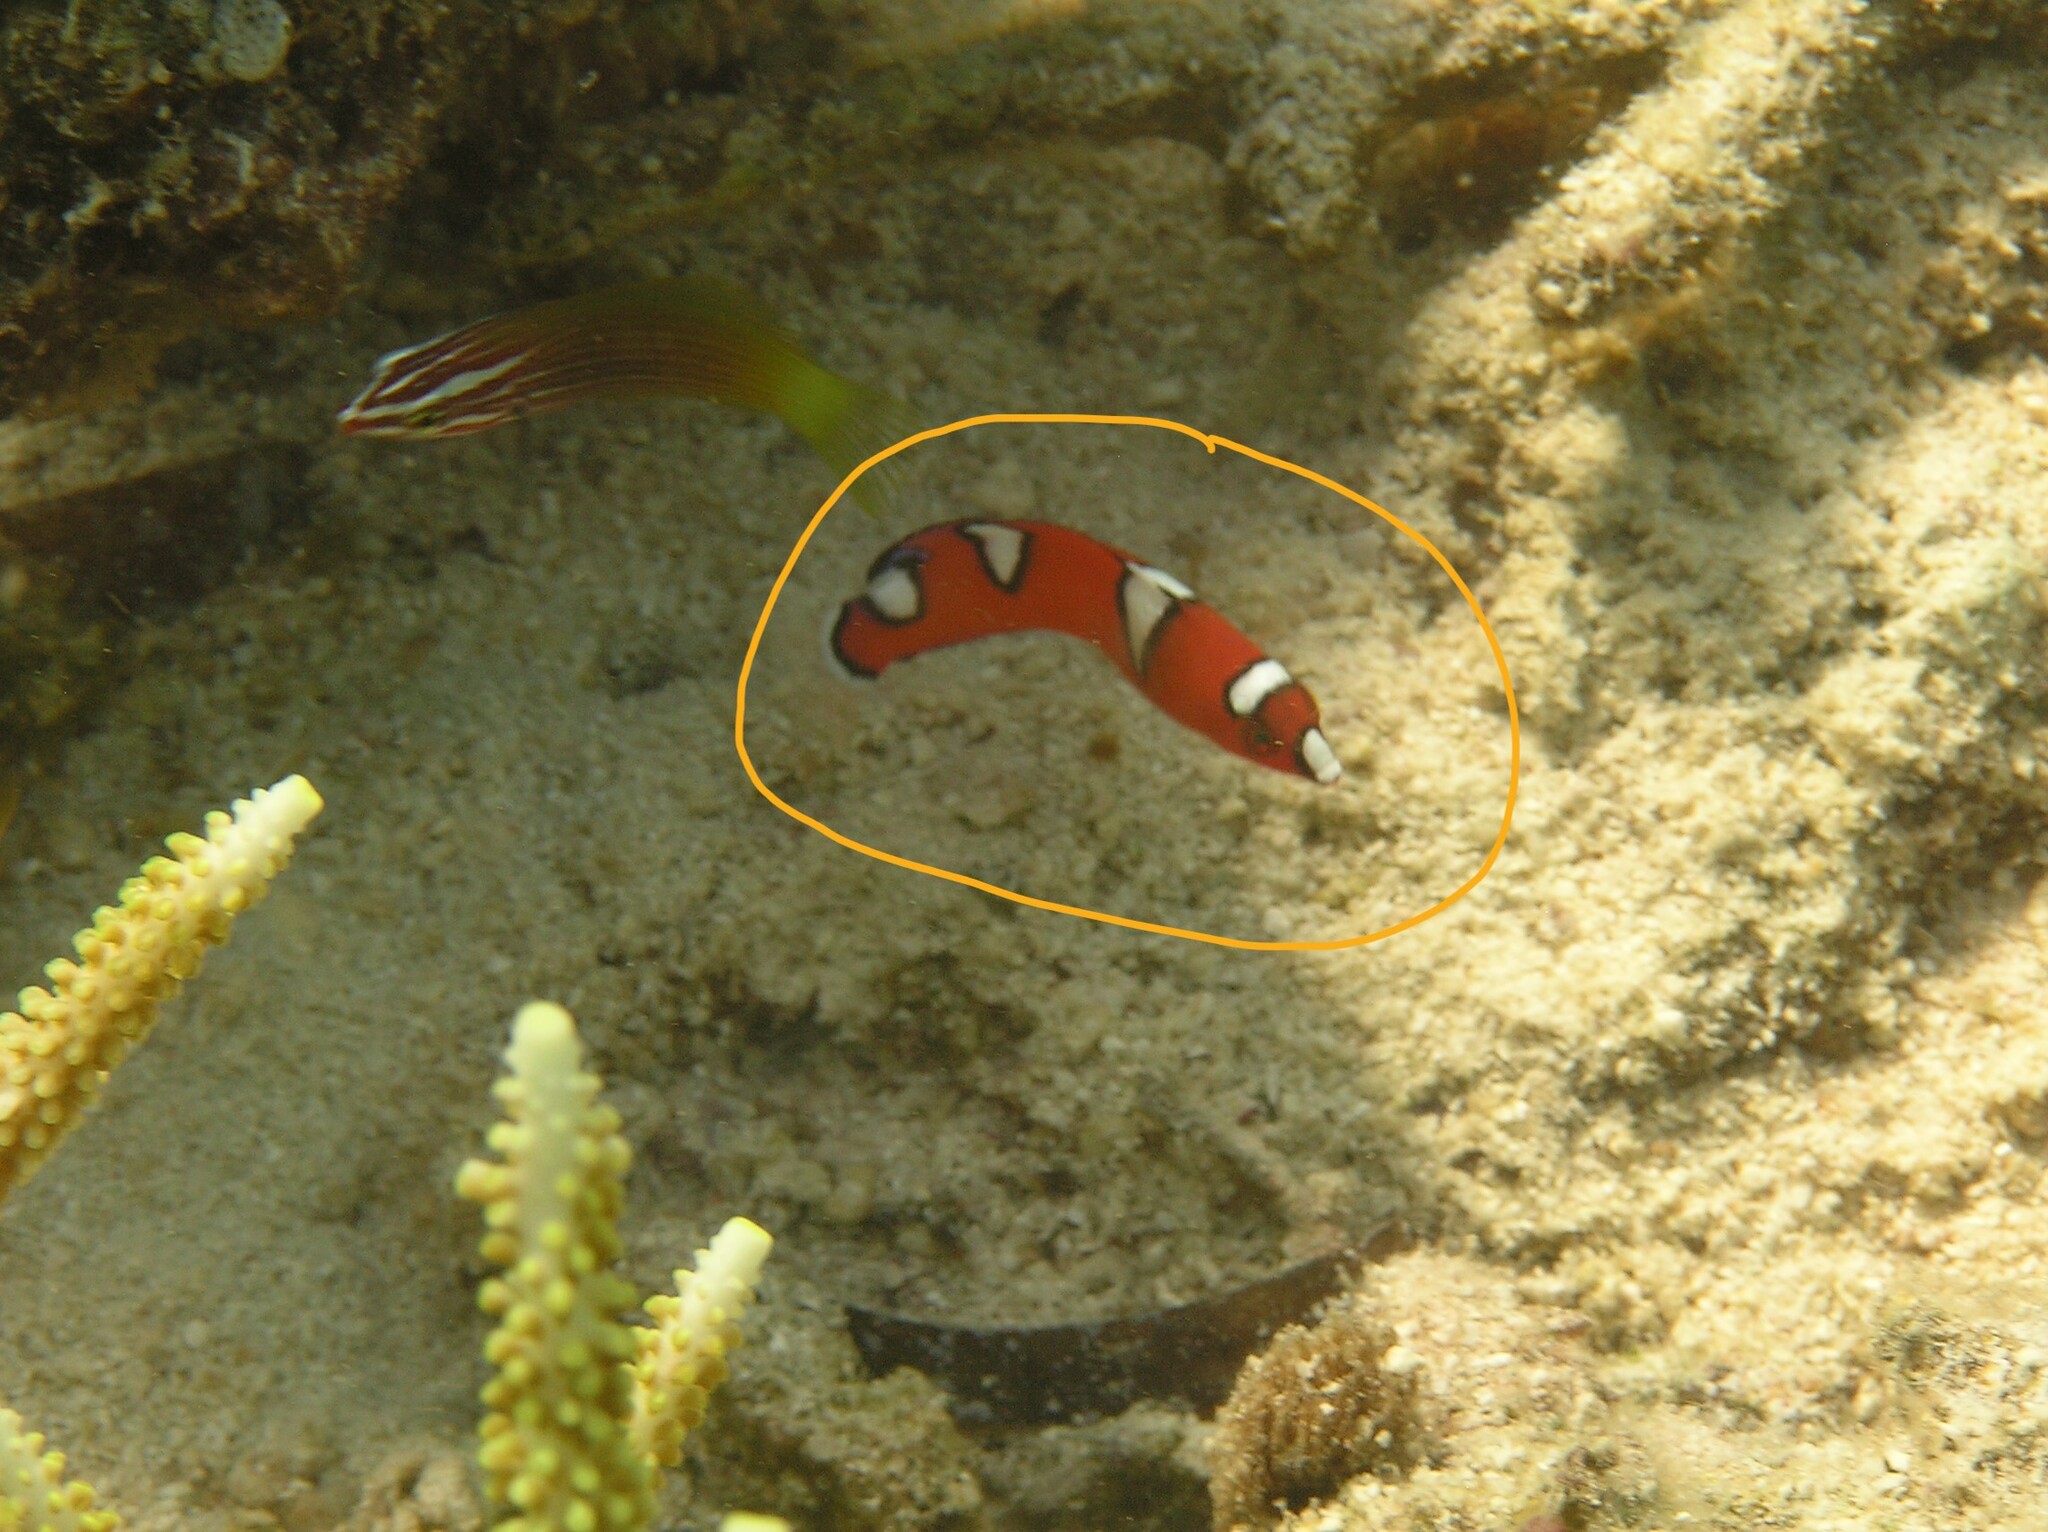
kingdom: Animalia
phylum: Chordata
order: Perciformes
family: Labridae
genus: Coris
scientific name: Coris gaimard
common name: Yellowtail coris
